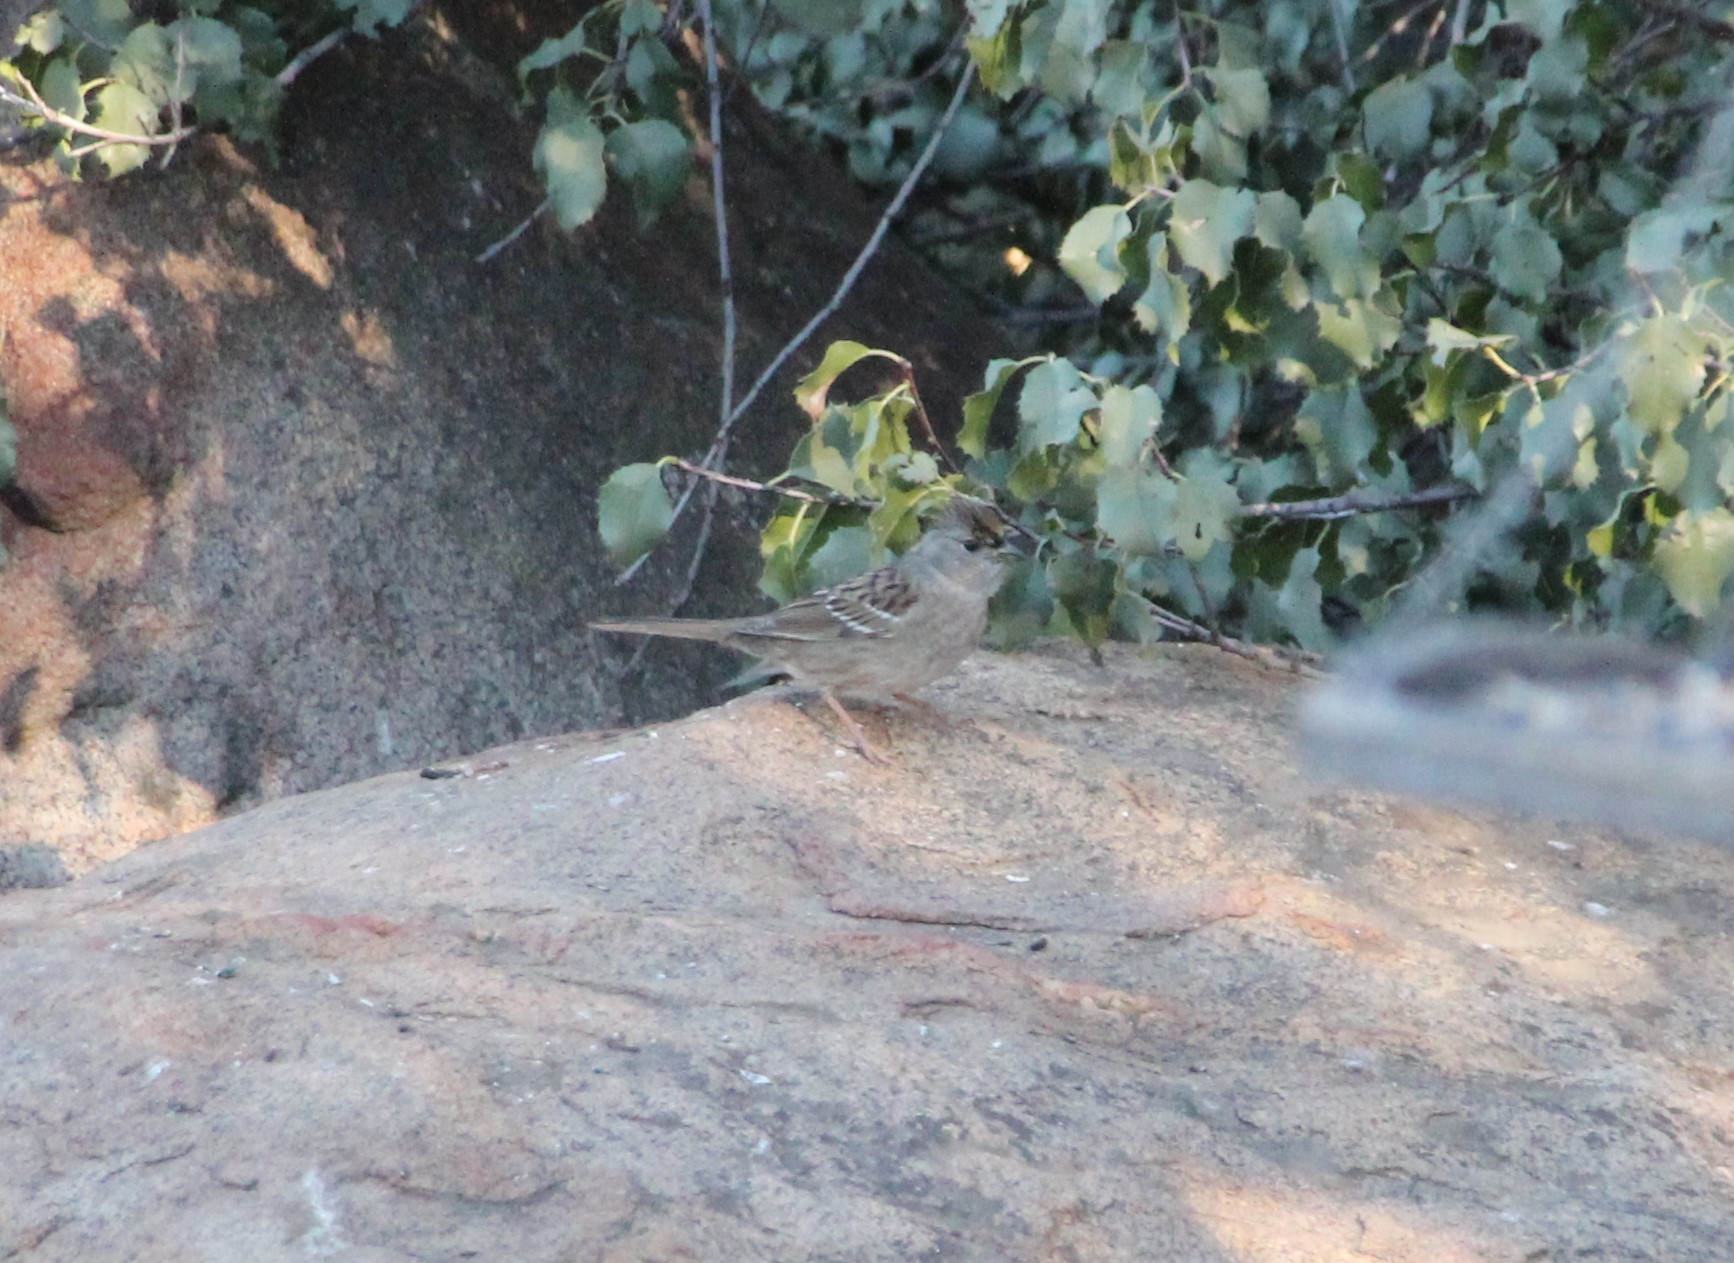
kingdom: Animalia
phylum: Chordata
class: Aves
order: Passeriformes
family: Passerellidae
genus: Zonotrichia
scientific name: Zonotrichia atricapilla
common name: Golden-crowned sparrow
